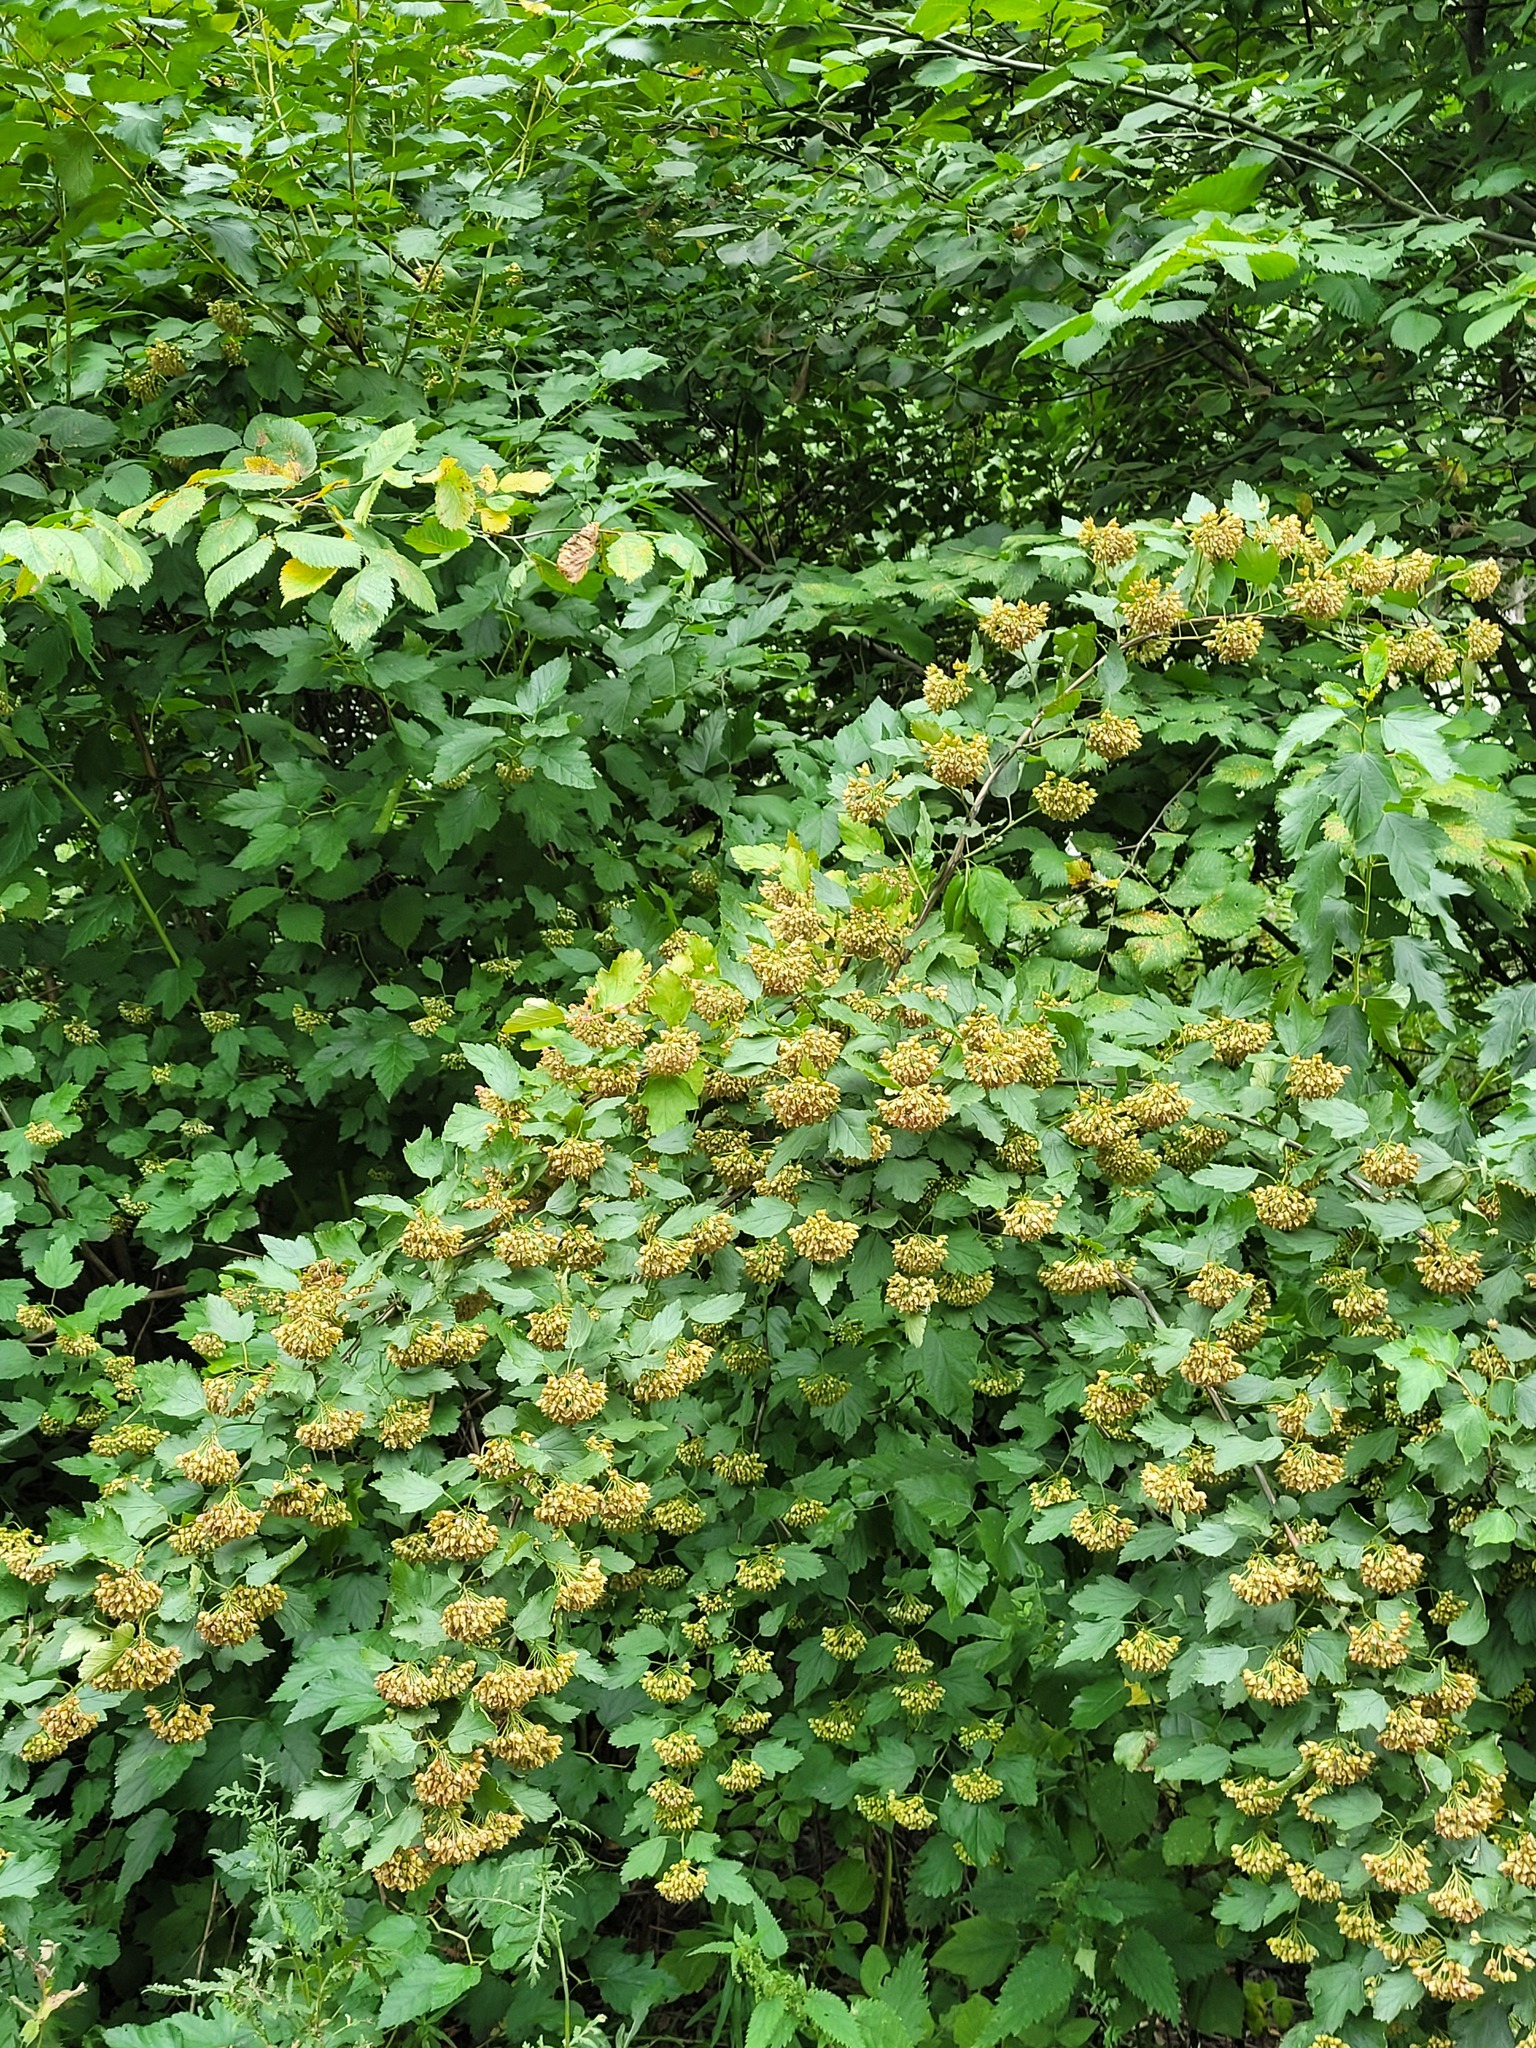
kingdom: Plantae
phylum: Tracheophyta
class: Magnoliopsida
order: Rosales
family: Rosaceae
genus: Physocarpus
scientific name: Physocarpus opulifolius
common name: Ninebark
